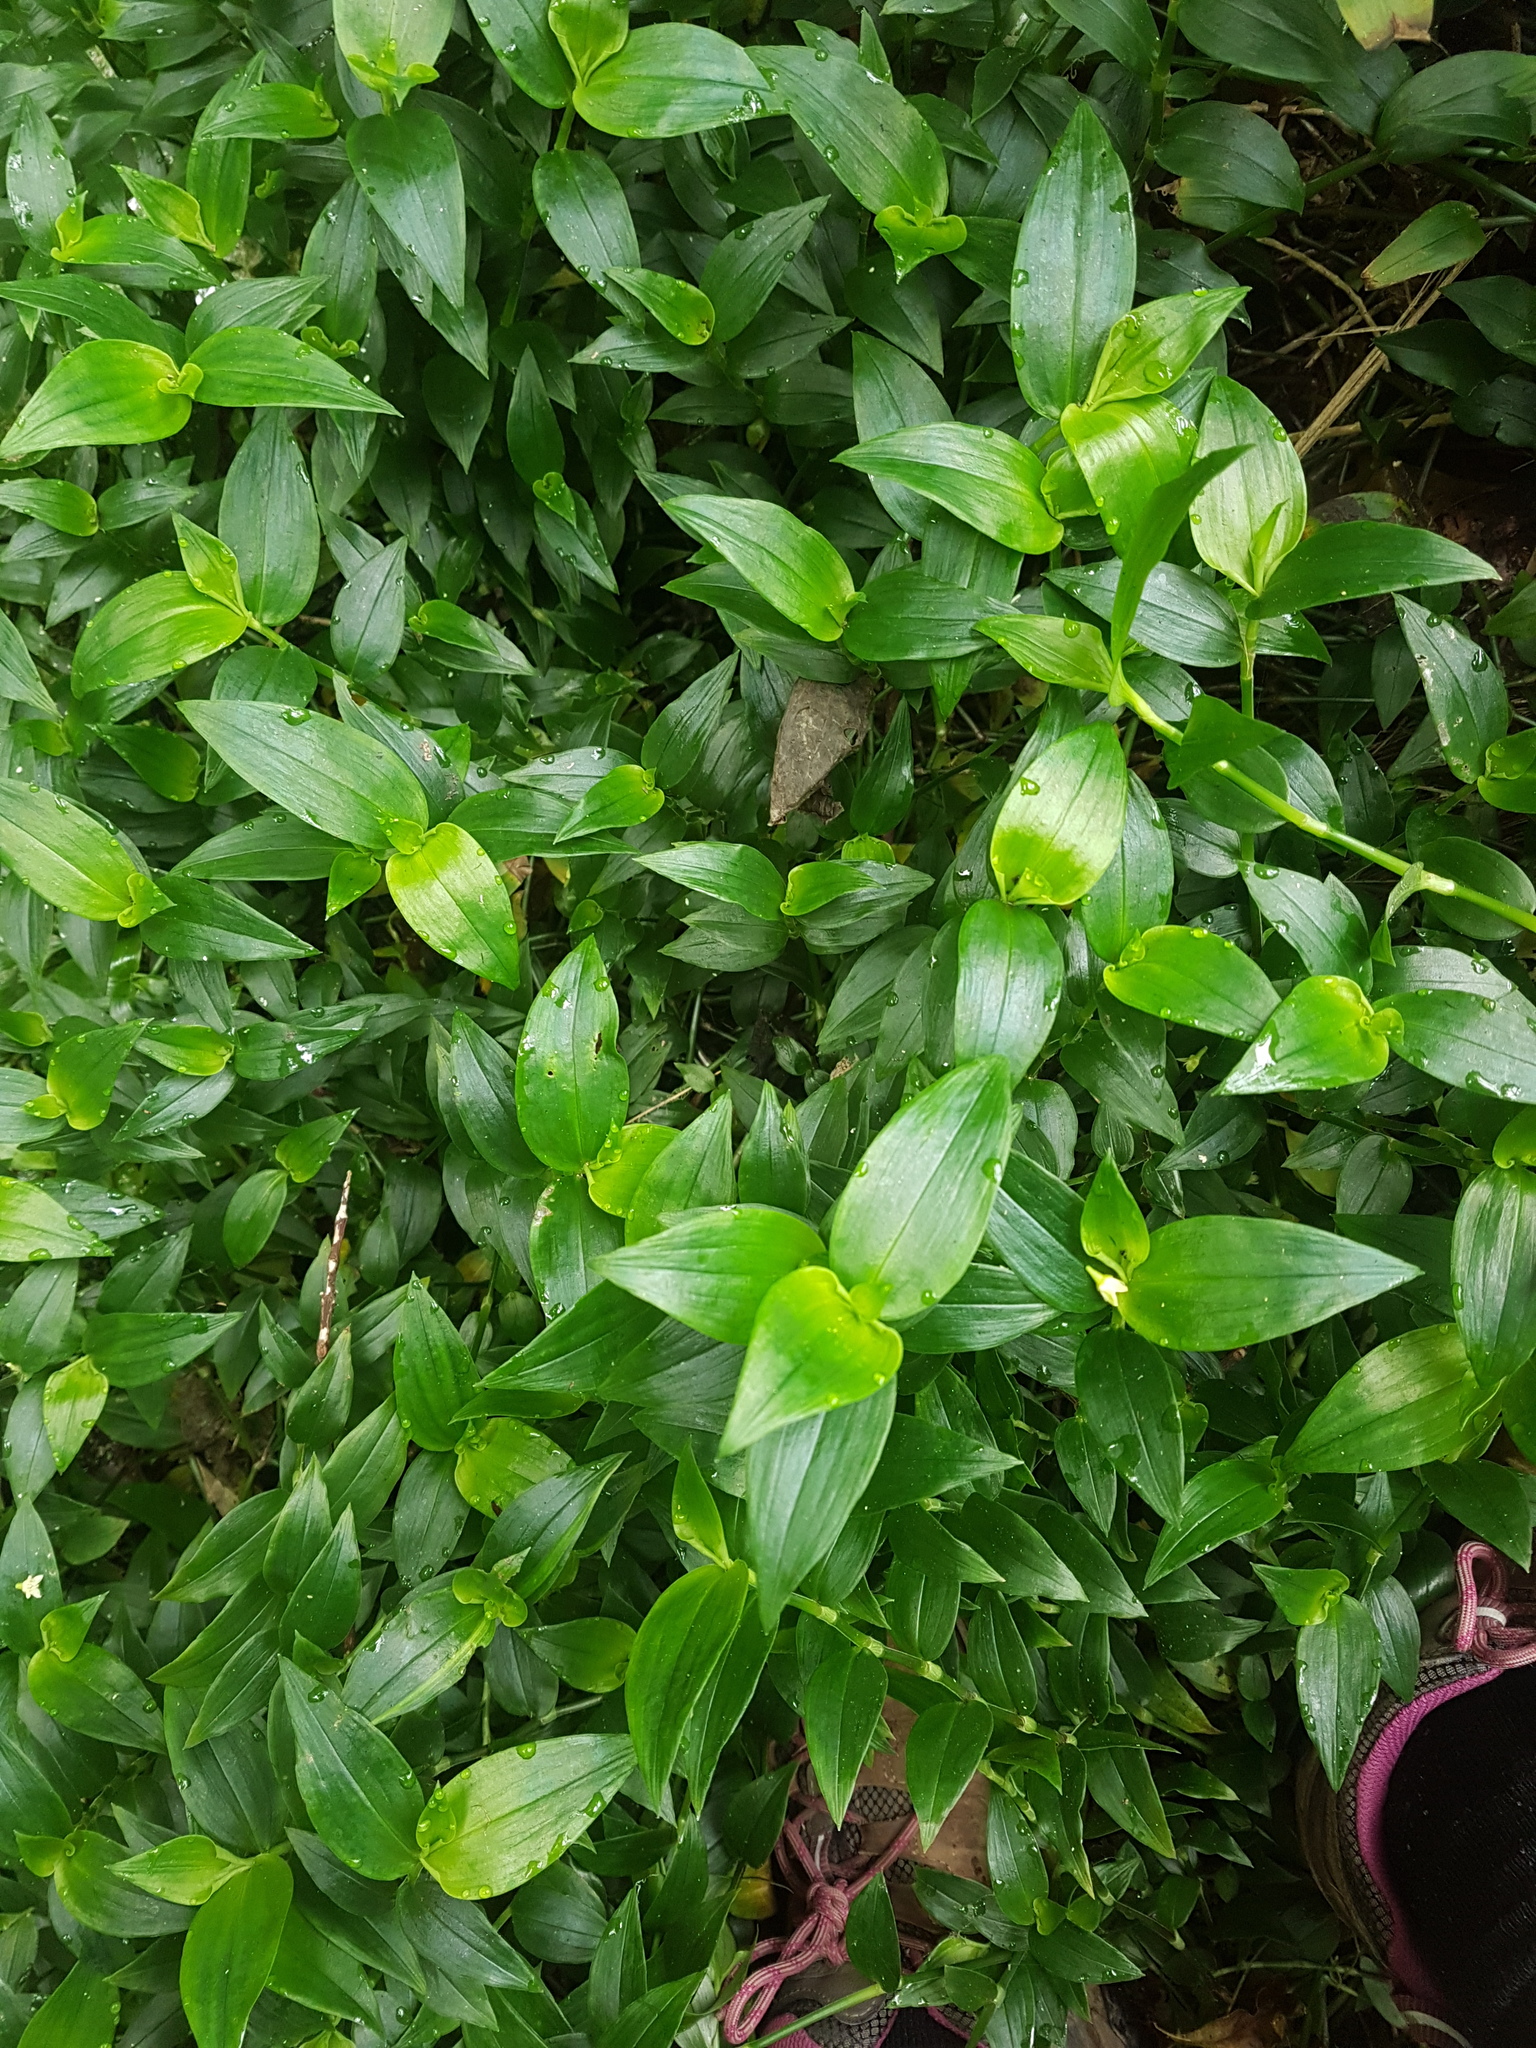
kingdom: Plantae
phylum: Tracheophyta
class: Liliopsida
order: Commelinales
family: Commelinaceae
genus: Tradescantia
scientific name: Tradescantia fluminensis
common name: Wandering-jew
